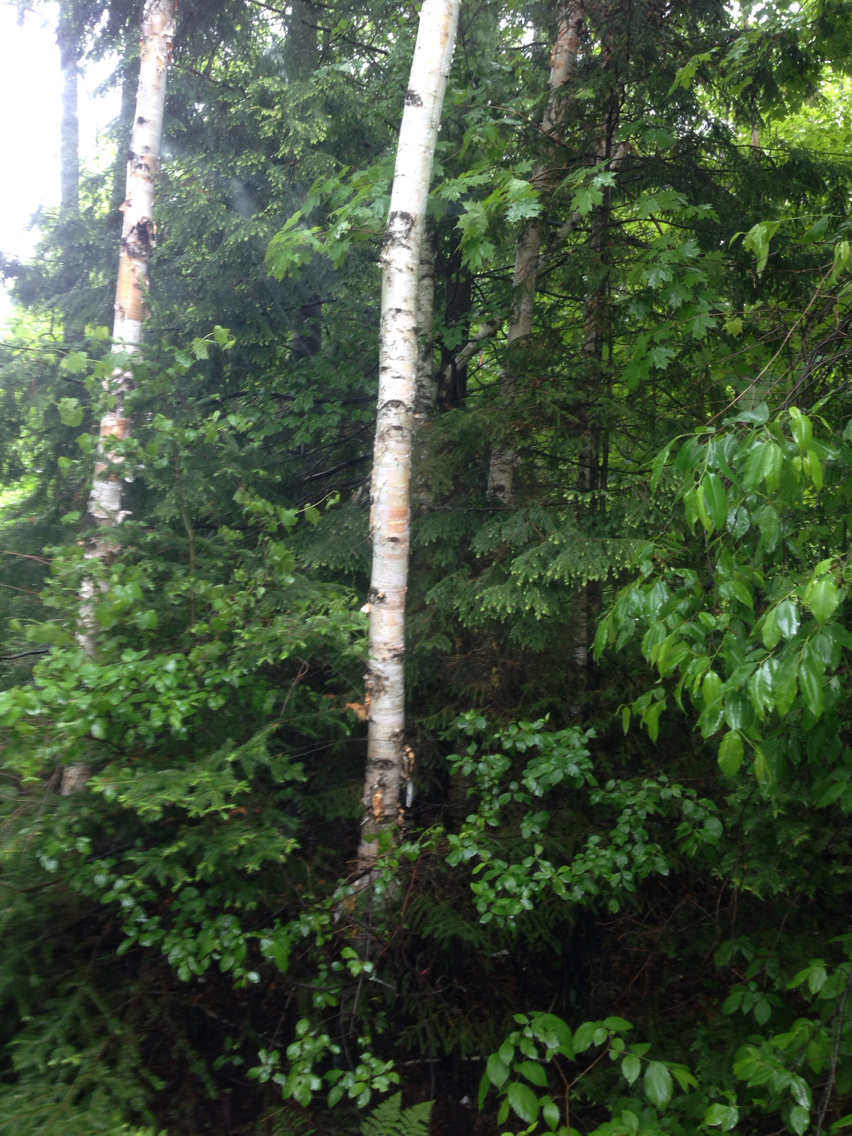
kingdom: Plantae
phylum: Tracheophyta
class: Magnoliopsida
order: Fagales
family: Betulaceae
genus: Betula
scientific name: Betula papyrifera
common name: Paper birch
